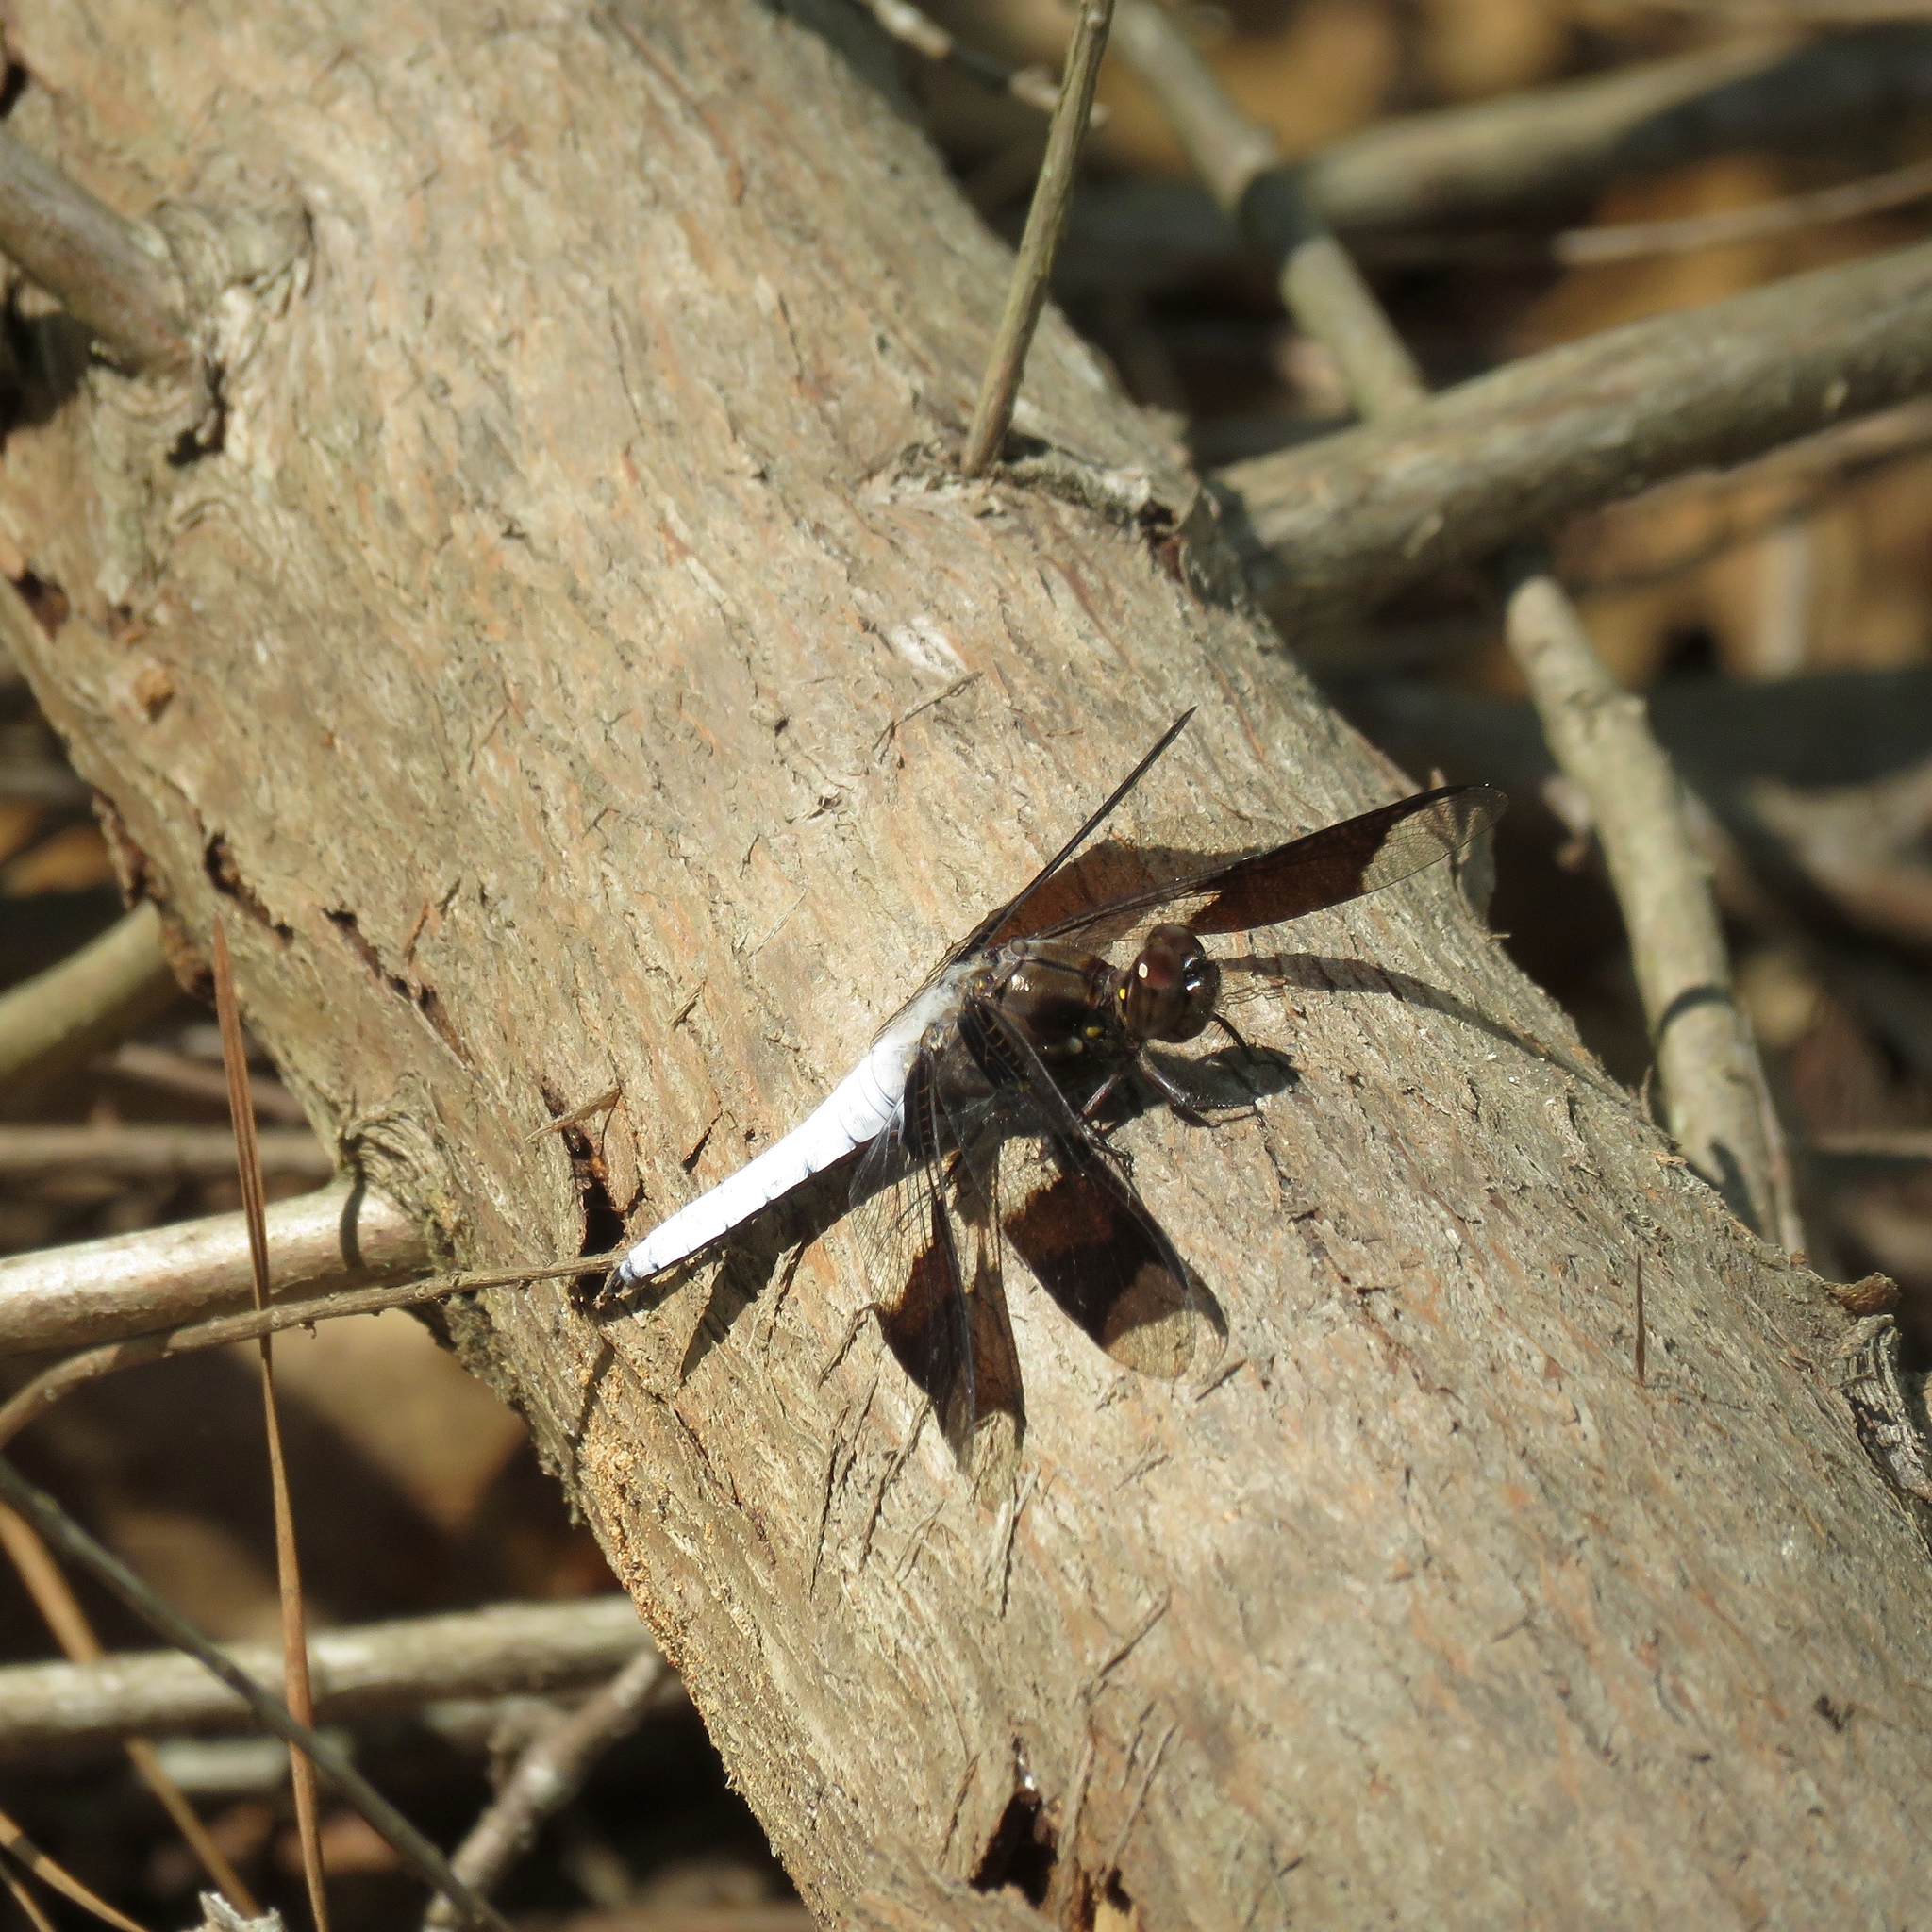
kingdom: Animalia
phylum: Arthropoda
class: Insecta
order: Odonata
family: Libellulidae
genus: Plathemis
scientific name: Plathemis lydia
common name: Common whitetail
